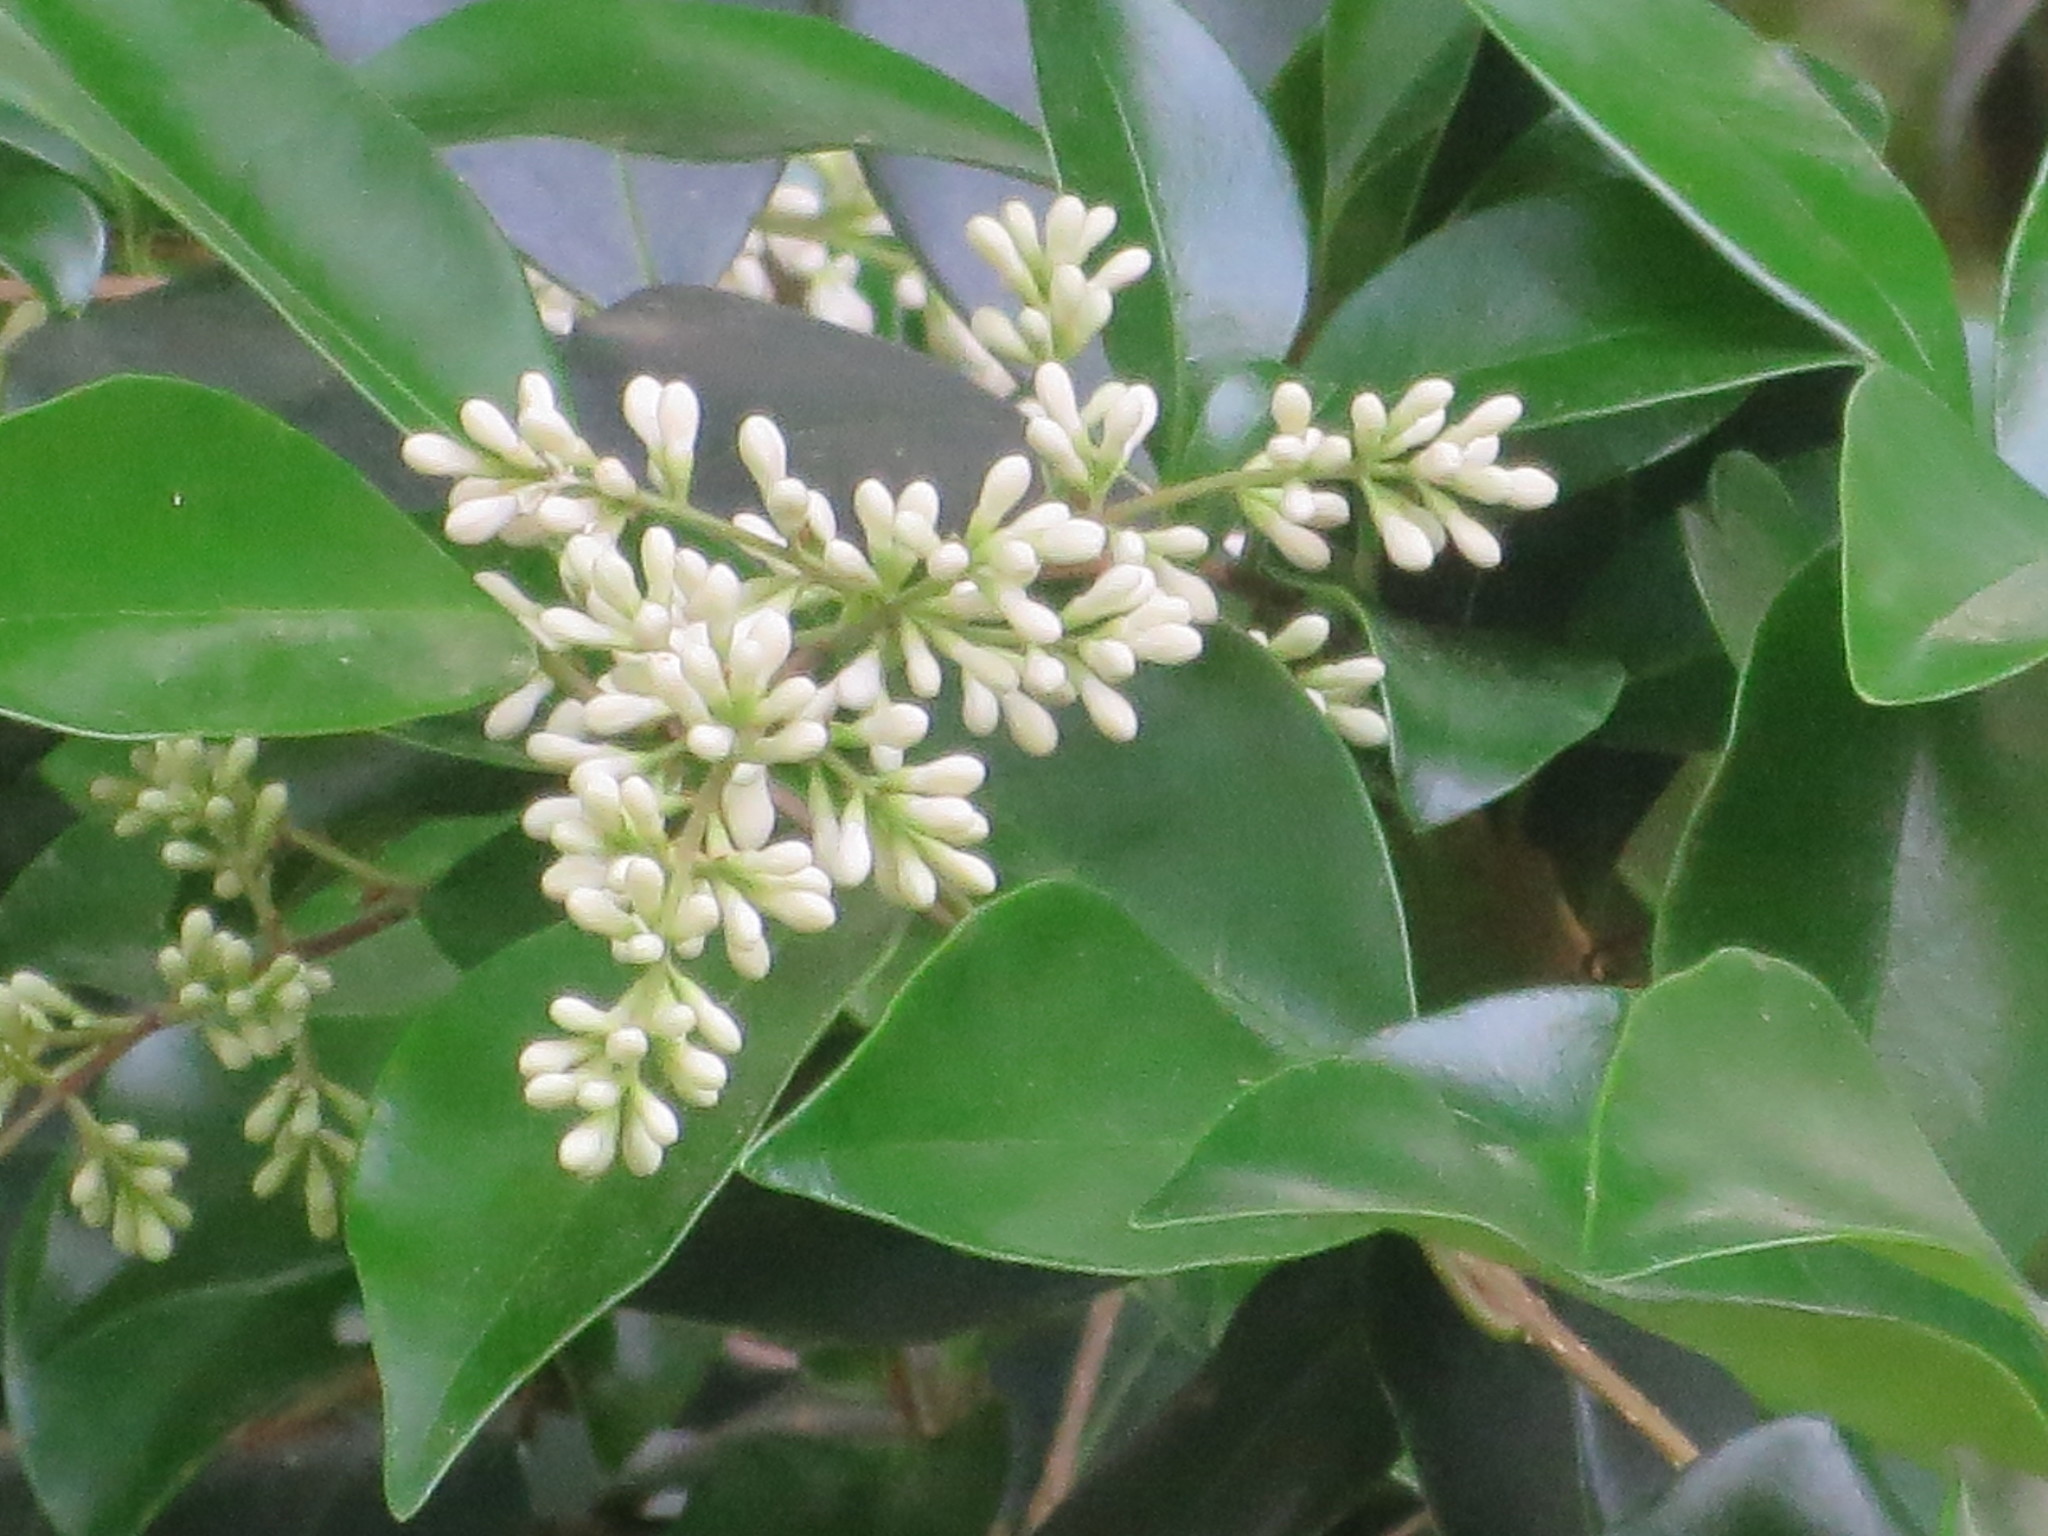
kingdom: Plantae
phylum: Tracheophyta
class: Magnoliopsida
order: Lamiales
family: Oleaceae
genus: Ligustrum
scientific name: Ligustrum japonicum
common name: Japanese privet
